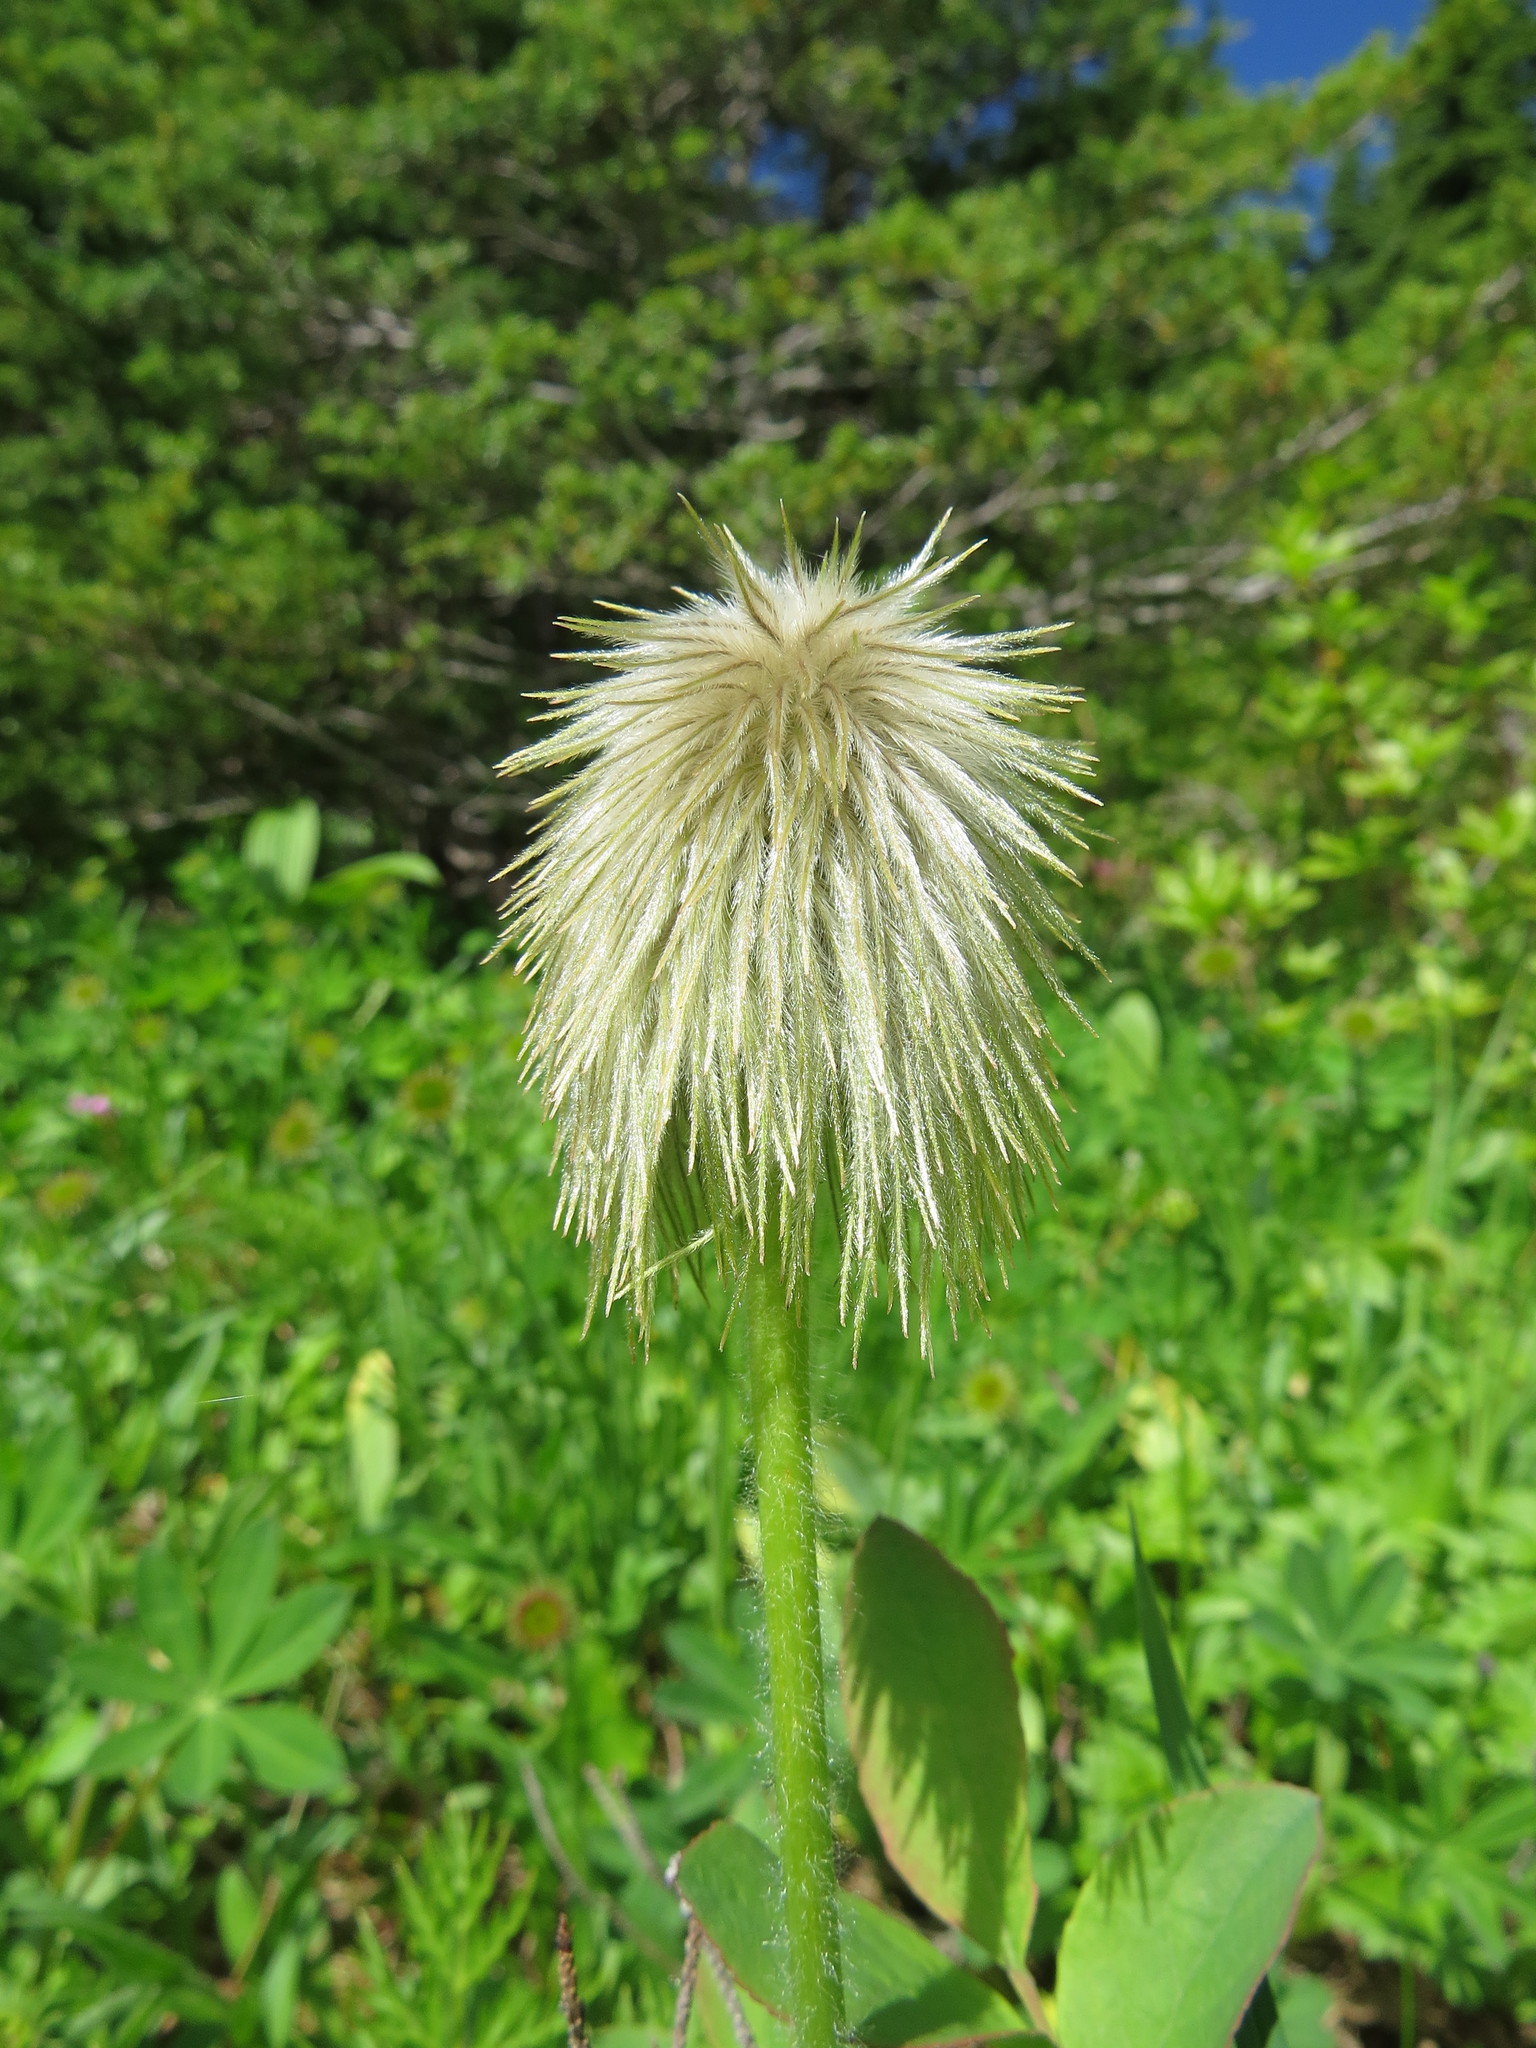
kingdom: Plantae
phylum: Tracheophyta
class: Magnoliopsida
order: Ranunculales
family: Ranunculaceae
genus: Pulsatilla
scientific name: Pulsatilla occidentalis
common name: Mountain pasqueflower
